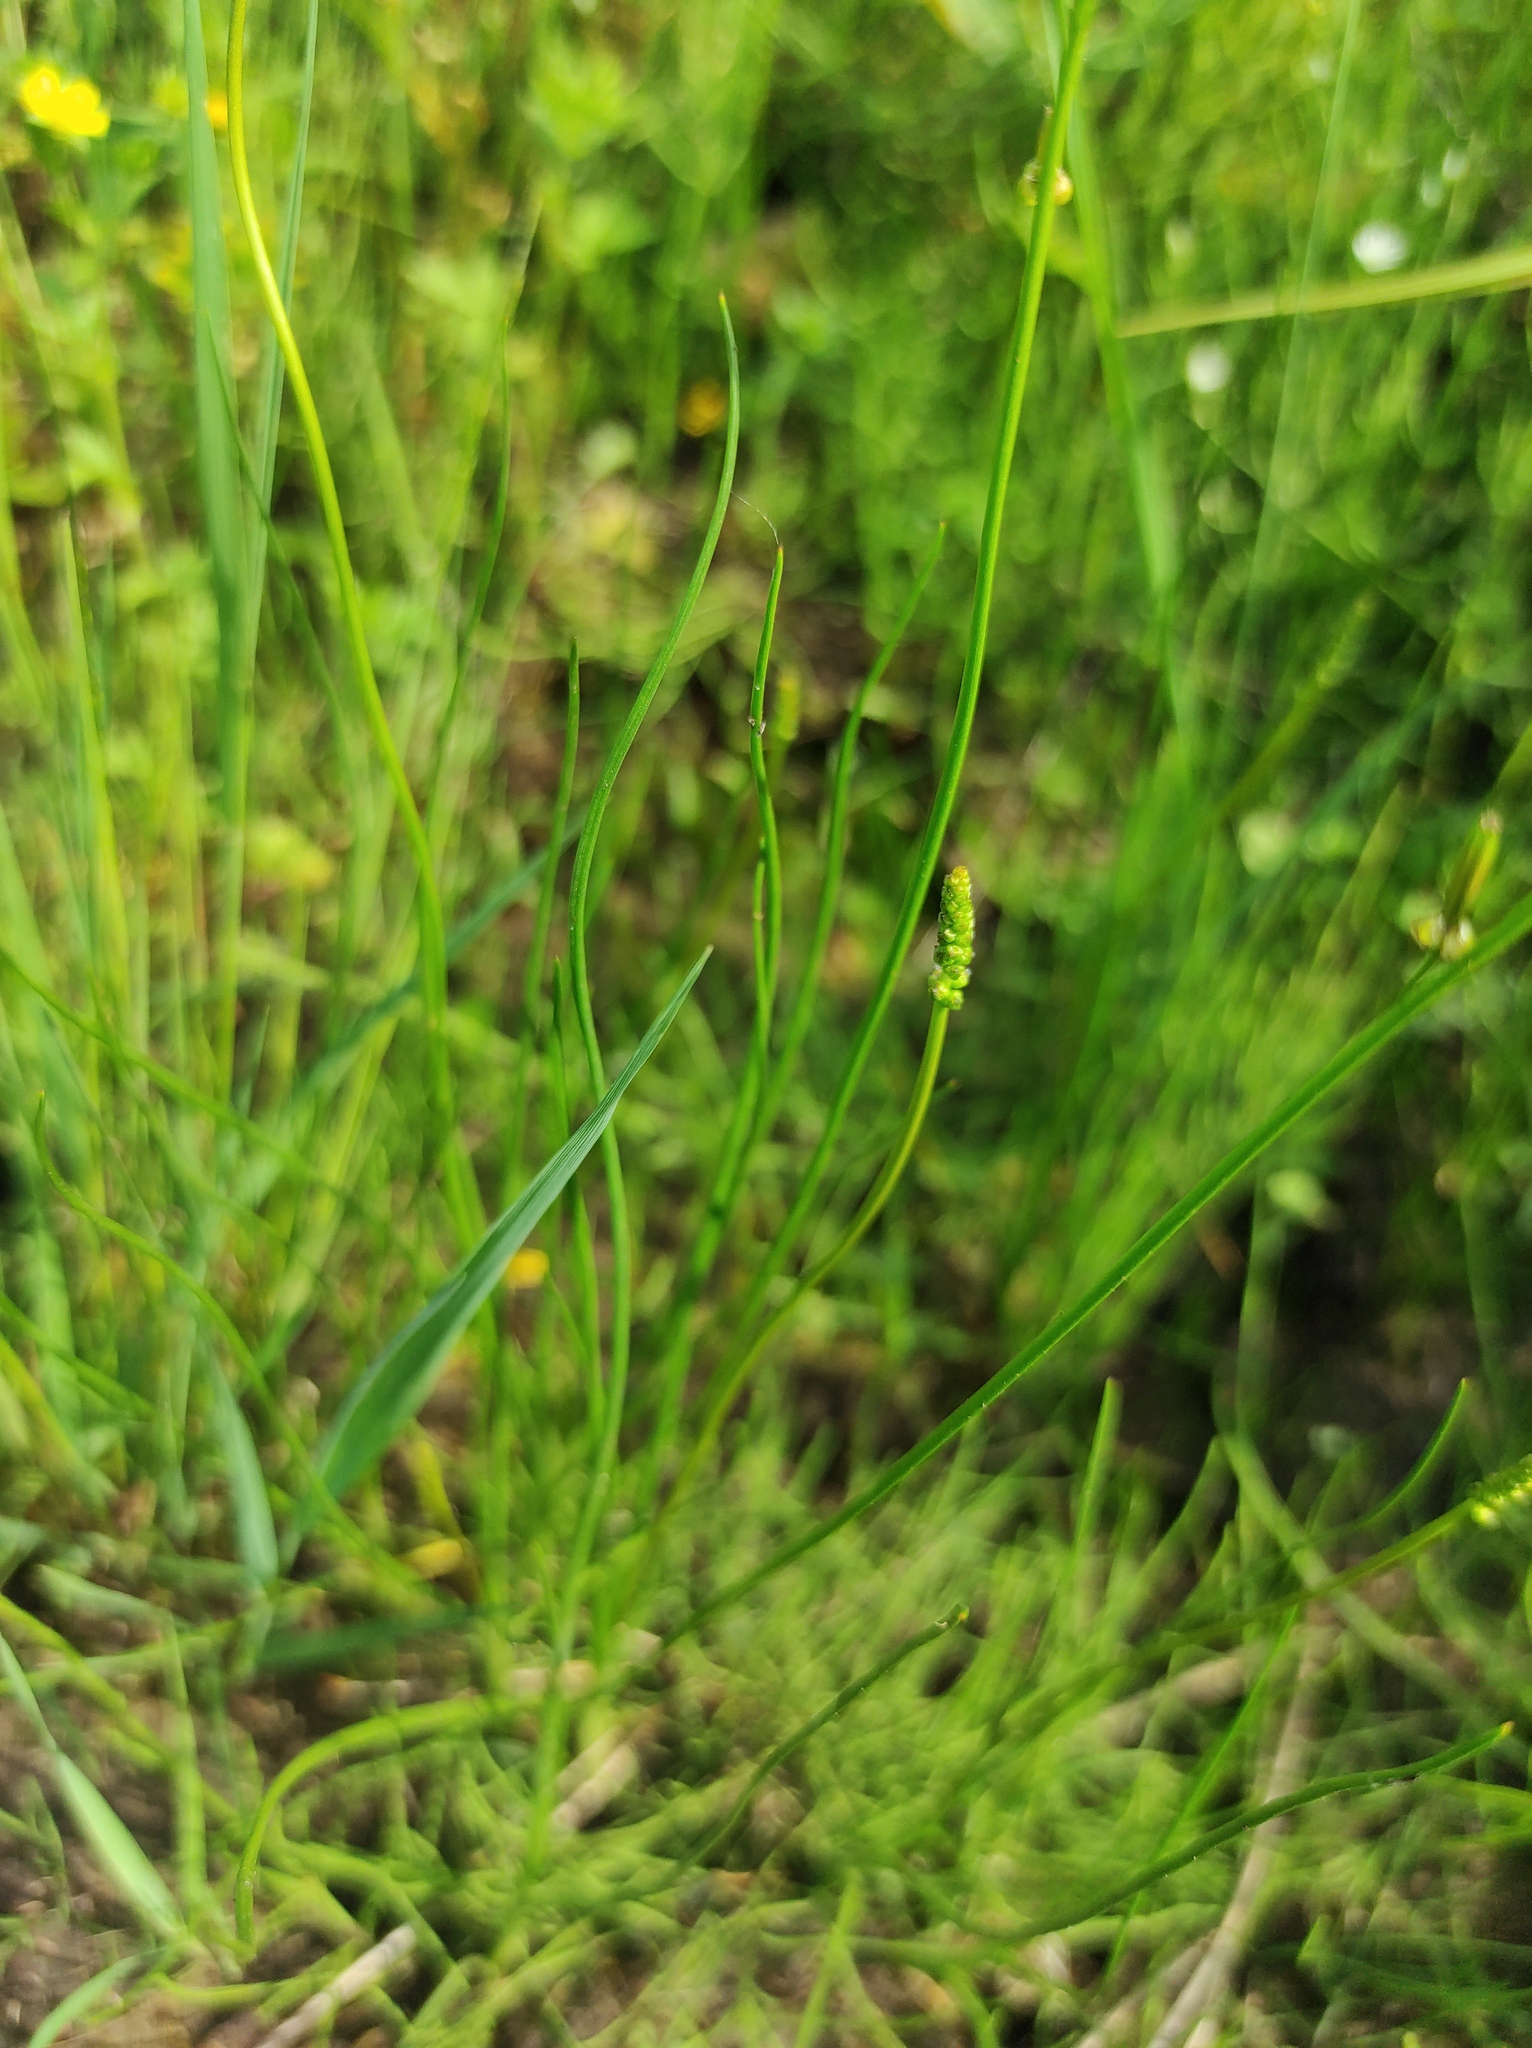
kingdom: Plantae
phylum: Tracheophyta
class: Liliopsida
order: Alismatales
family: Juncaginaceae
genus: Triglochin
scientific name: Triglochin palustris
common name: Marsh arrowgrass
